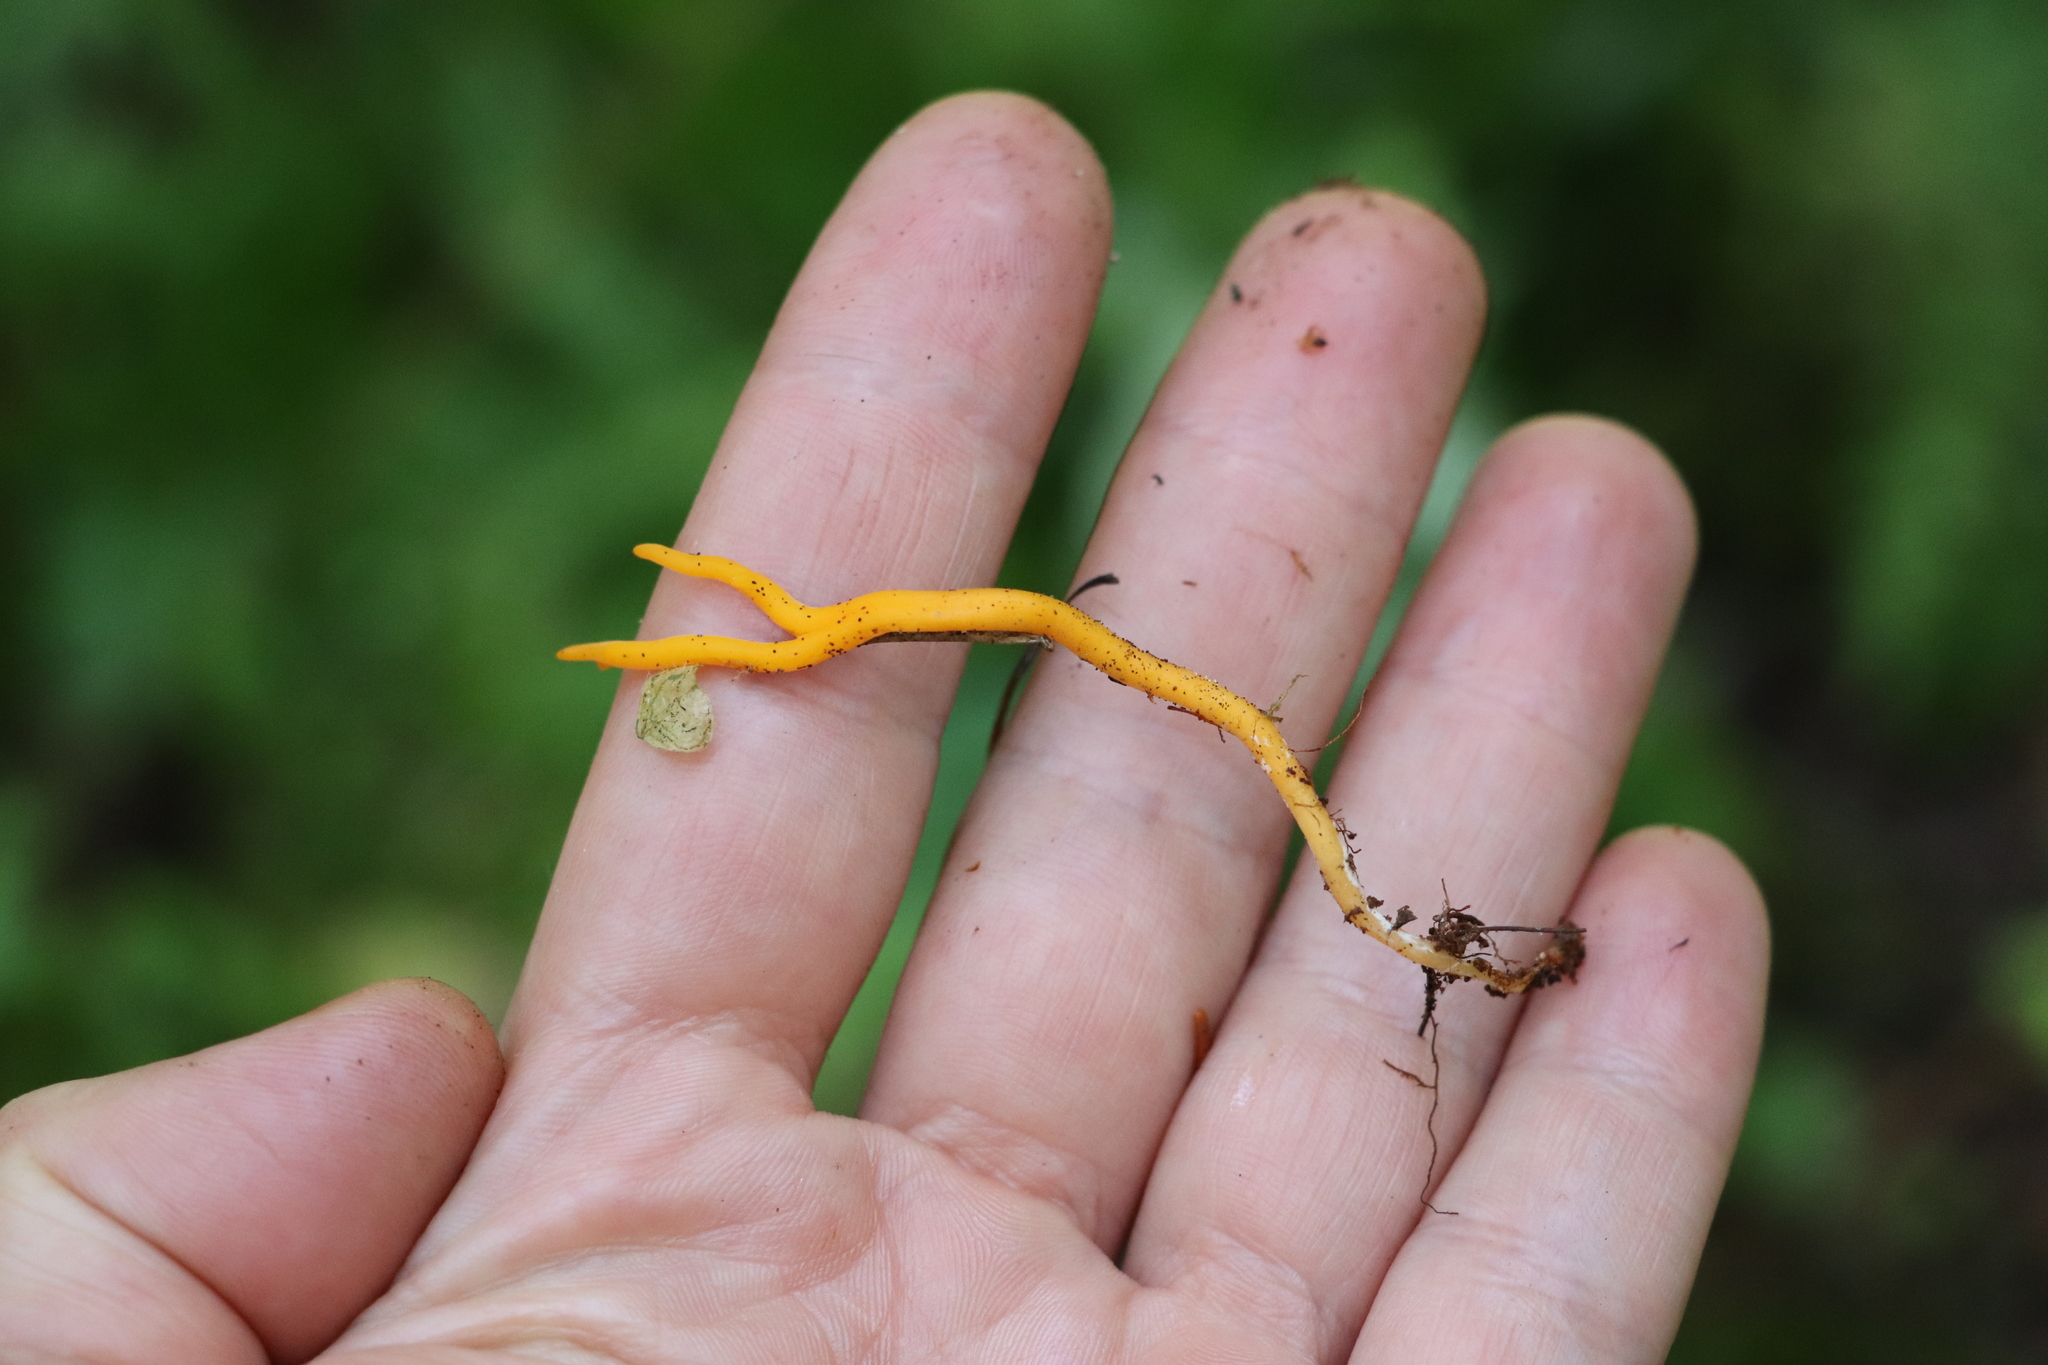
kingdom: Fungi
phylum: Basidiomycota
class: Dacrymycetes
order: Dacrymycetales
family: Dacrymycetaceae
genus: Calocera
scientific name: Calocera viscosa
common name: Yellow stagshorn
